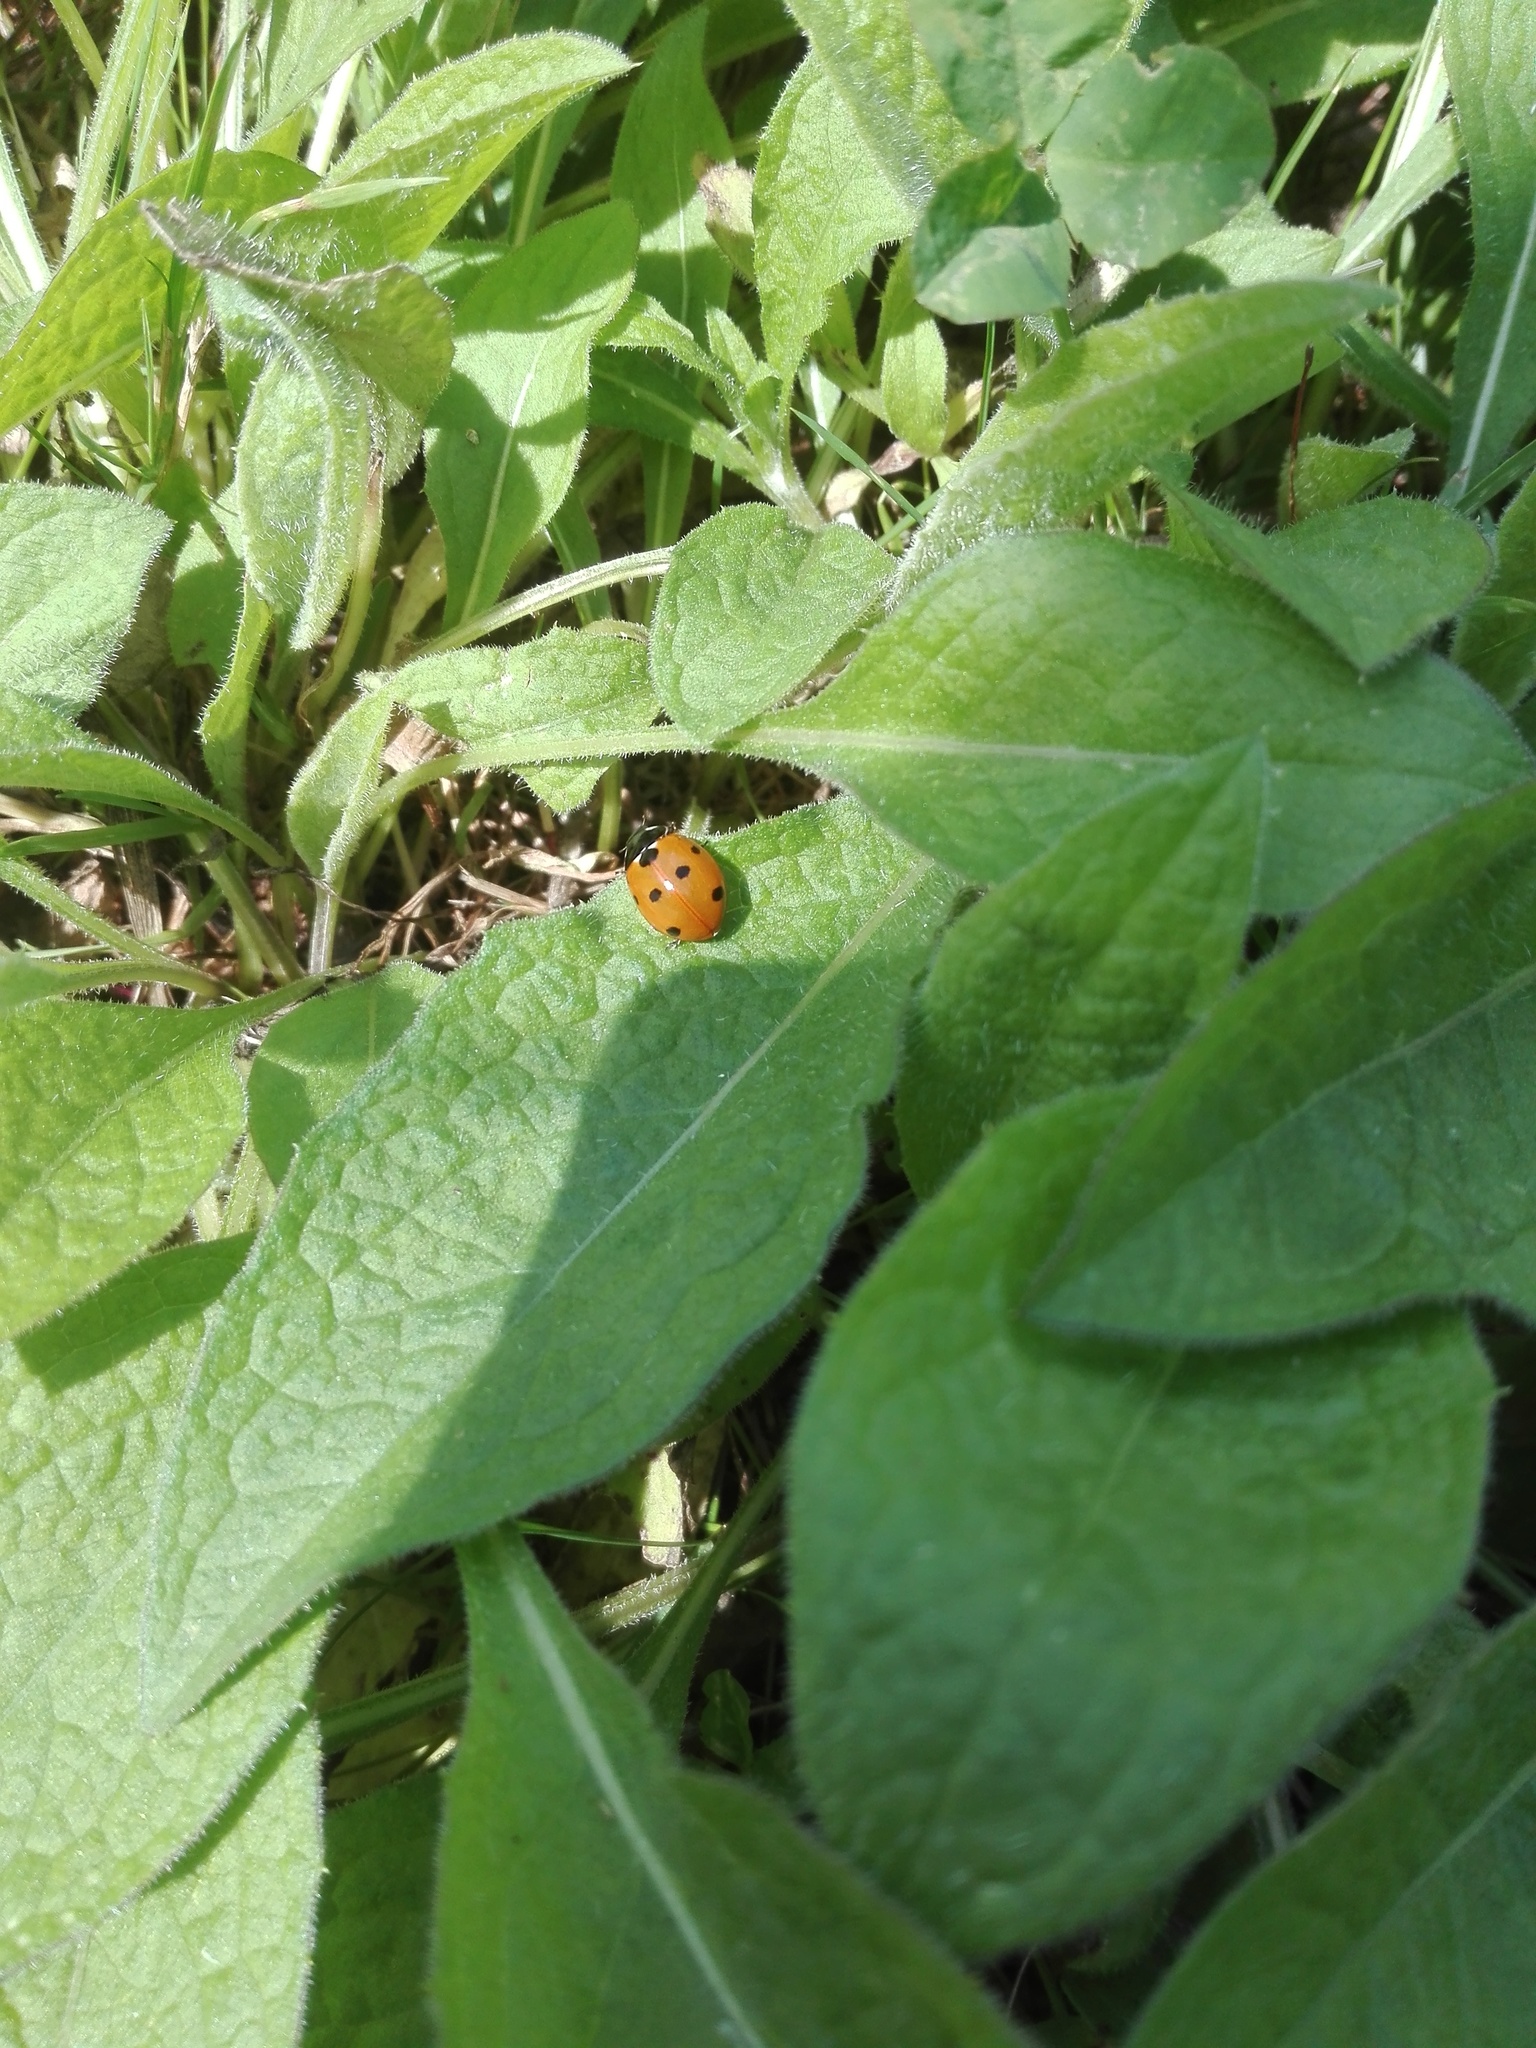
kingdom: Animalia
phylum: Arthropoda
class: Insecta
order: Coleoptera
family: Coccinellidae
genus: Coccinella
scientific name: Coccinella septempunctata
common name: Sevenspotted lady beetle
